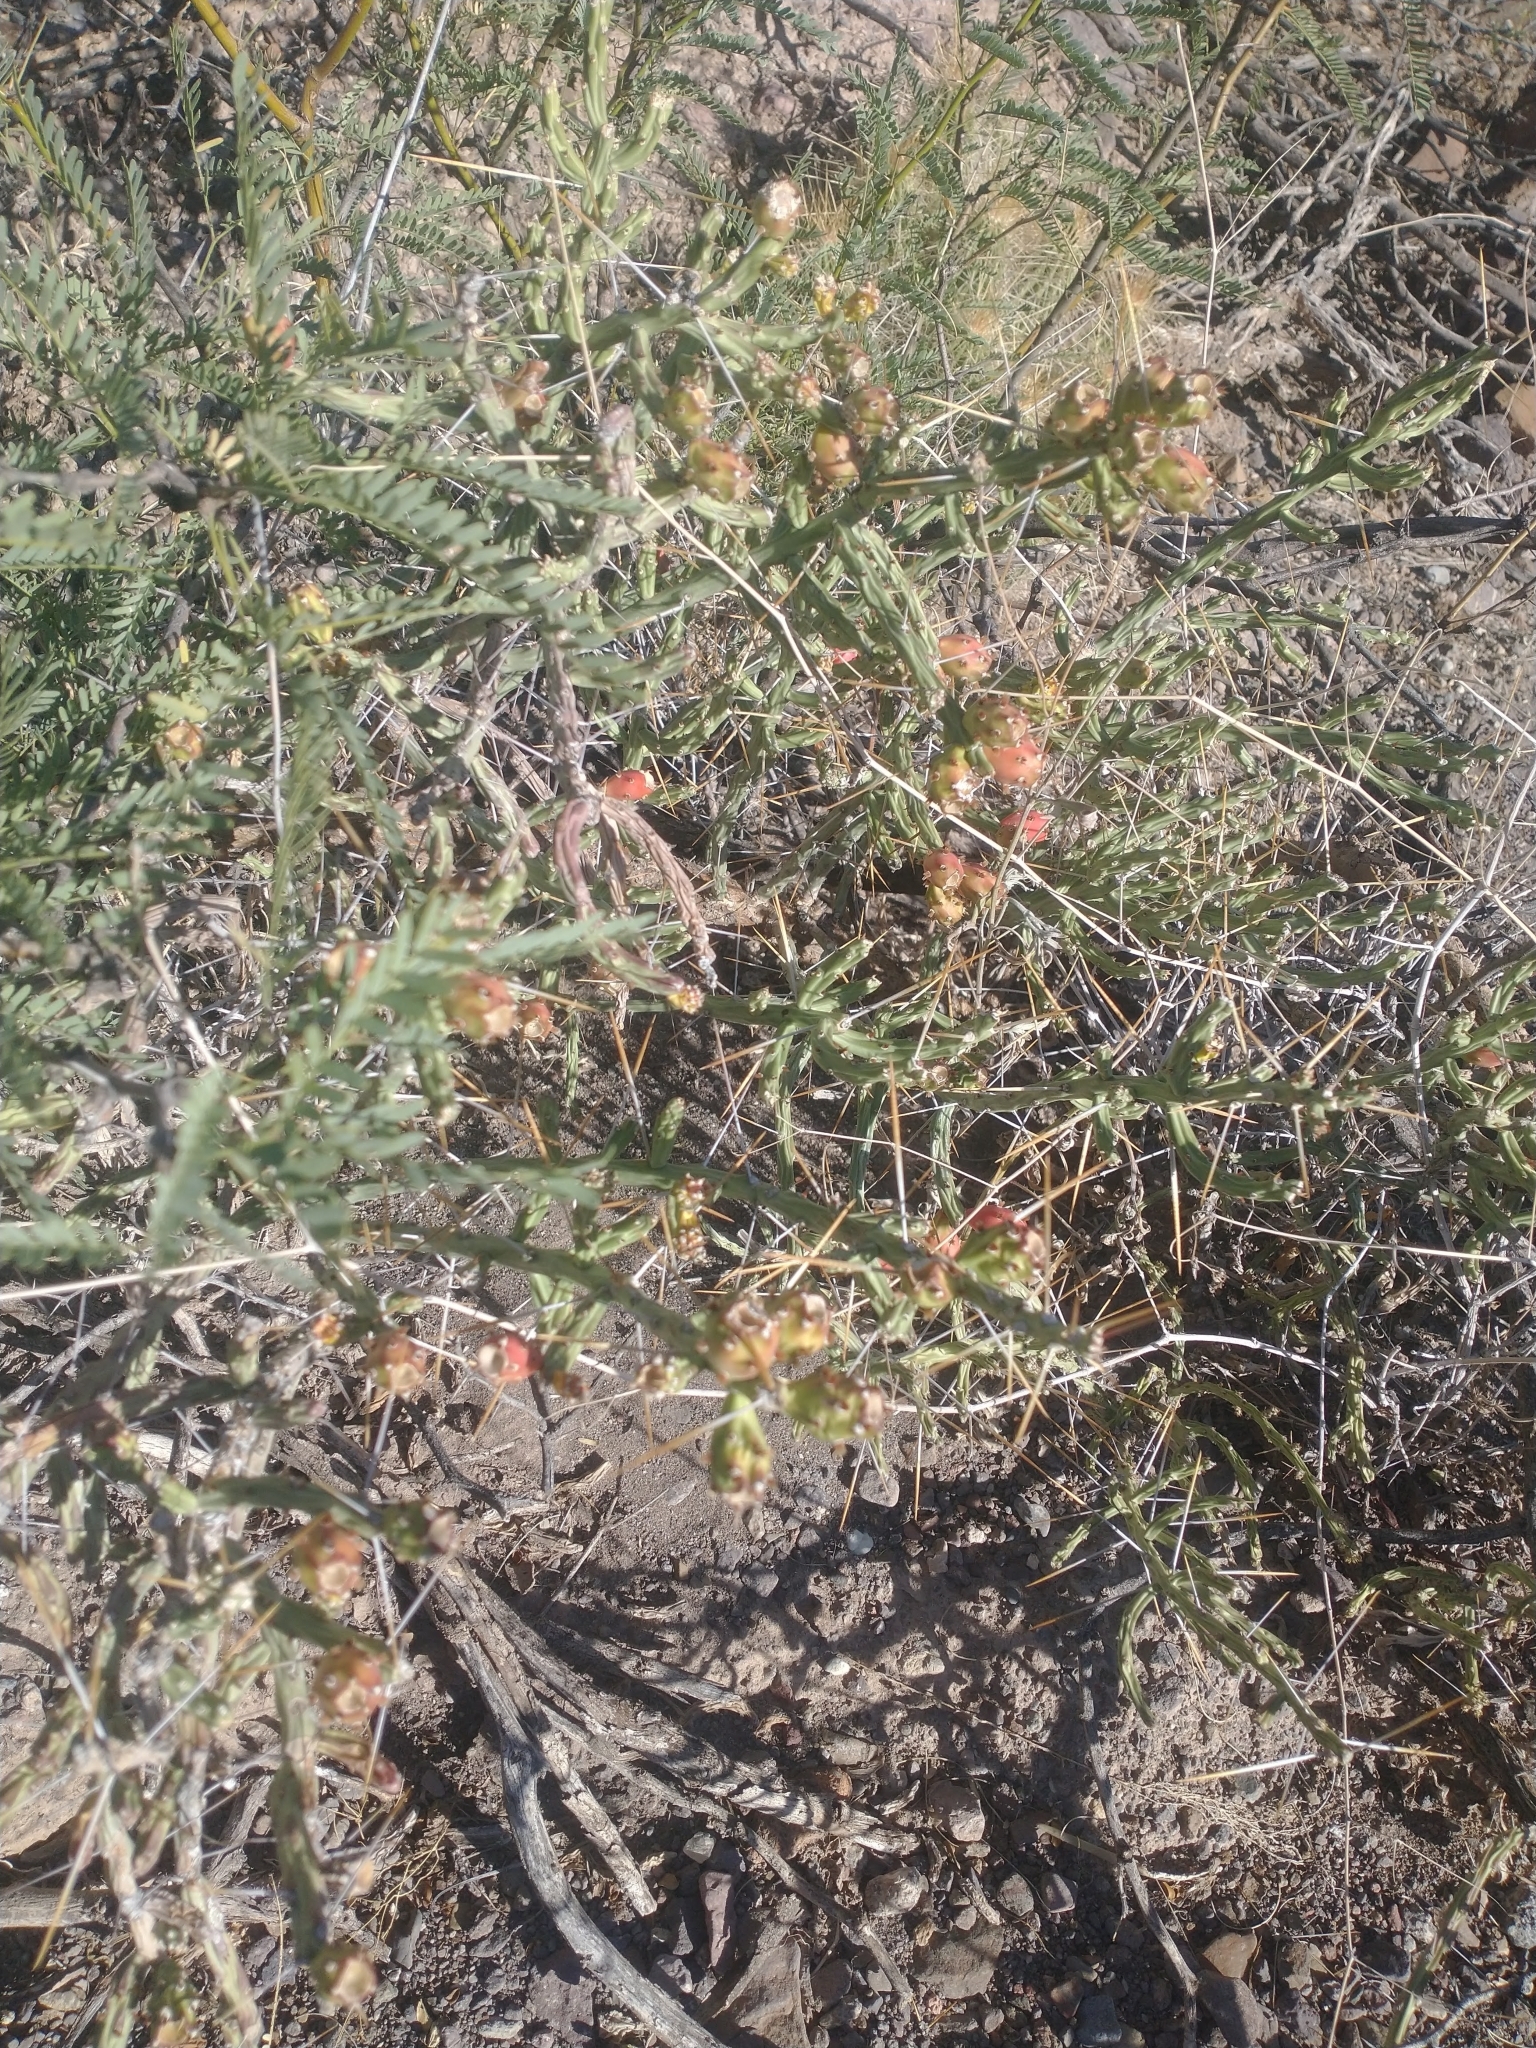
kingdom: Plantae
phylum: Tracheophyta
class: Magnoliopsida
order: Caryophyllales
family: Cactaceae
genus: Cylindropuntia
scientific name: Cylindropuntia leptocaulis
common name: Christmas cactus
